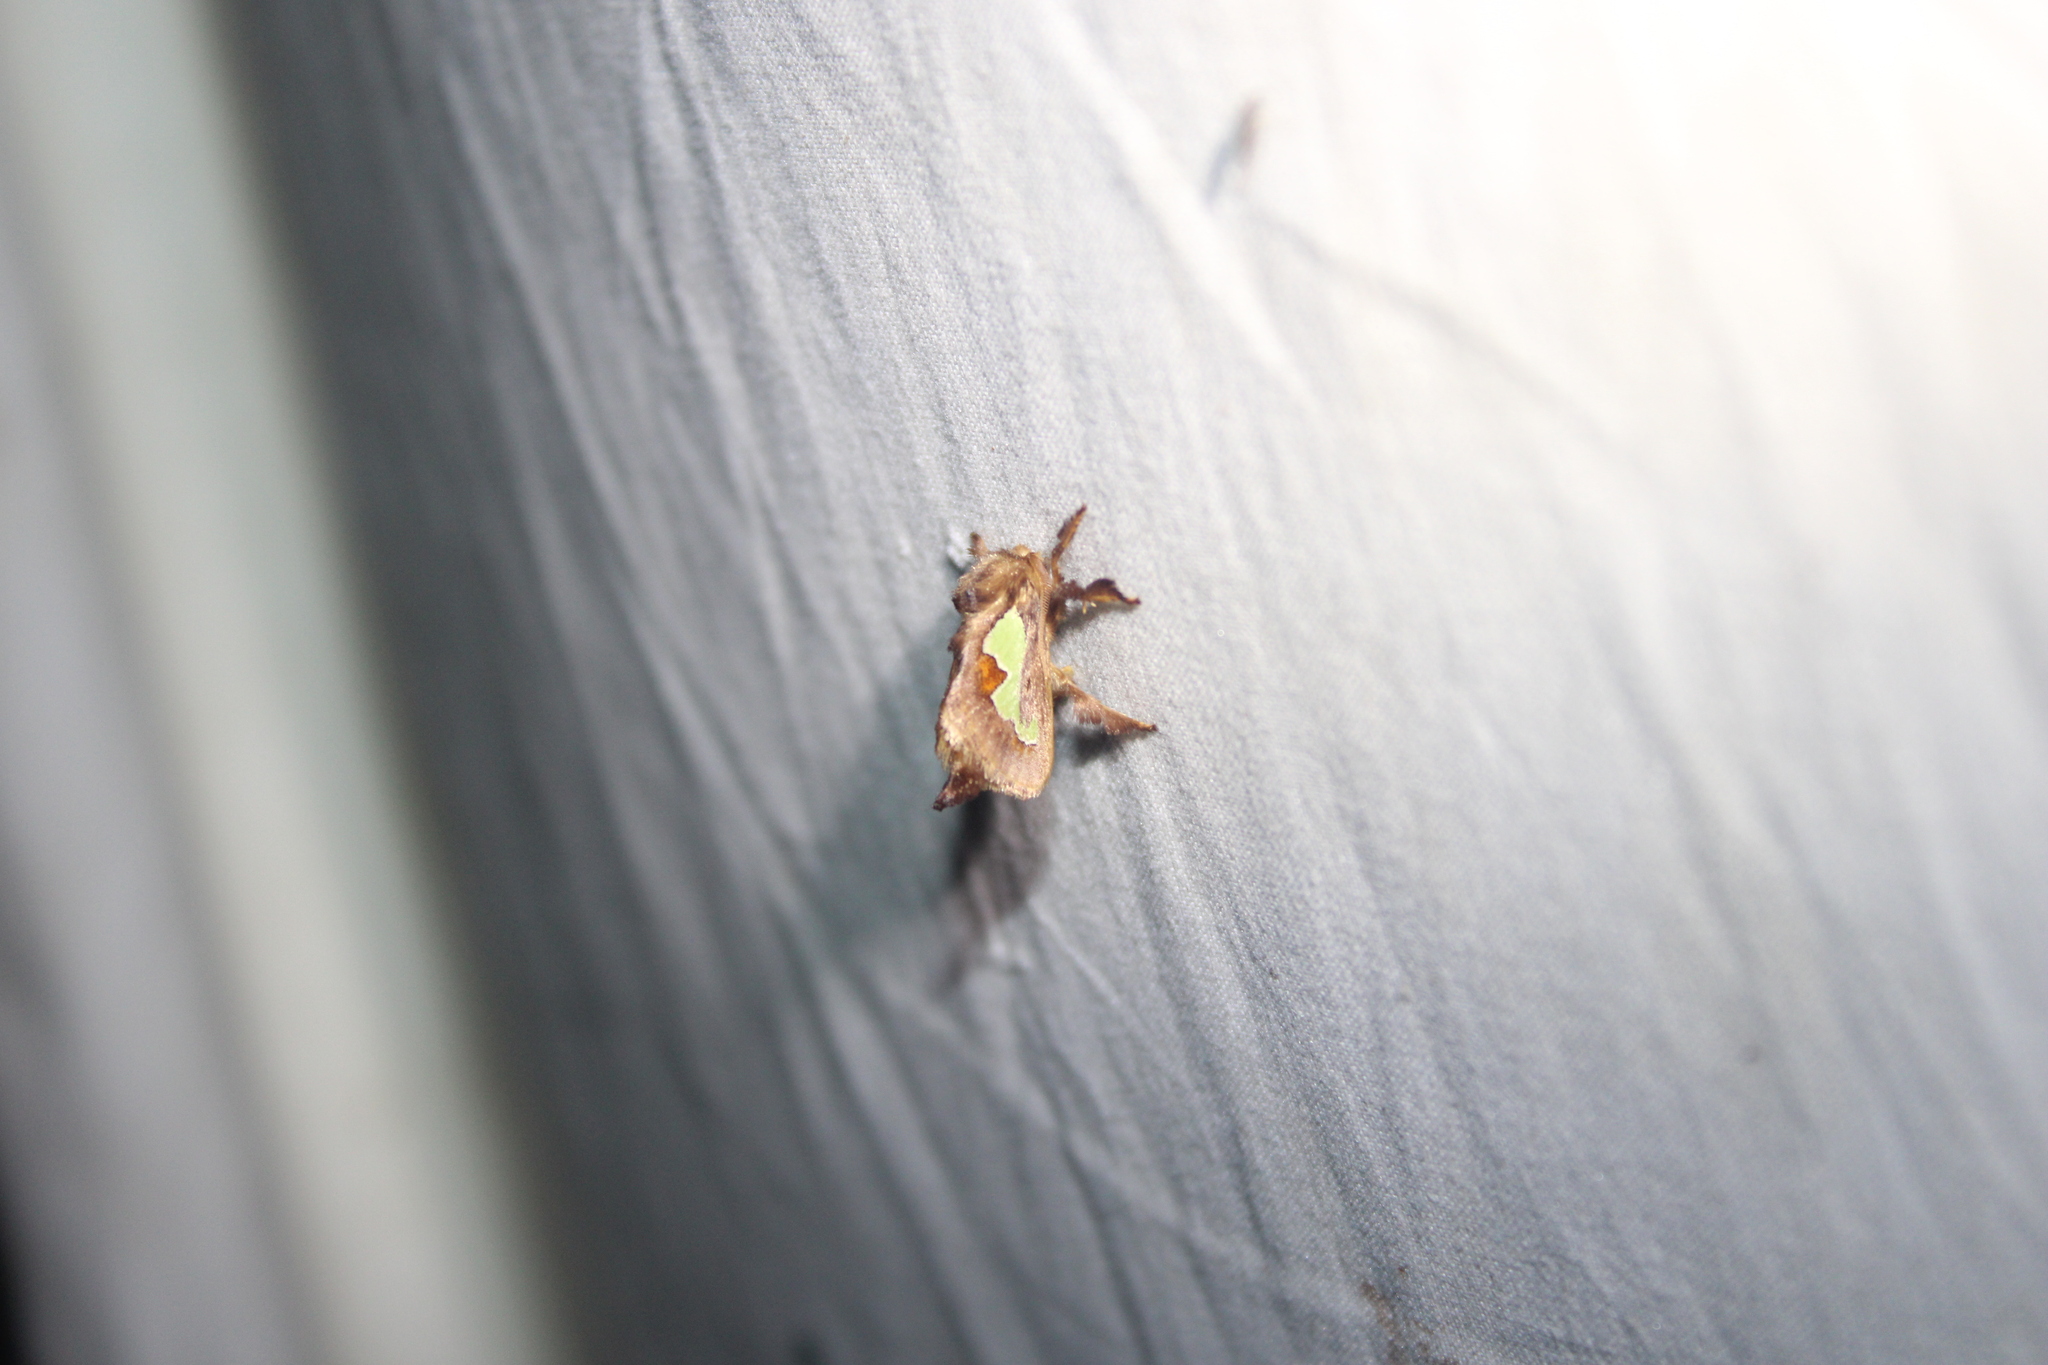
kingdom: Animalia
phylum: Arthropoda
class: Insecta
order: Lepidoptera
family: Limacodidae
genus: Euclea
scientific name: Euclea delphinii
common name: Spiny oak-slug moth
